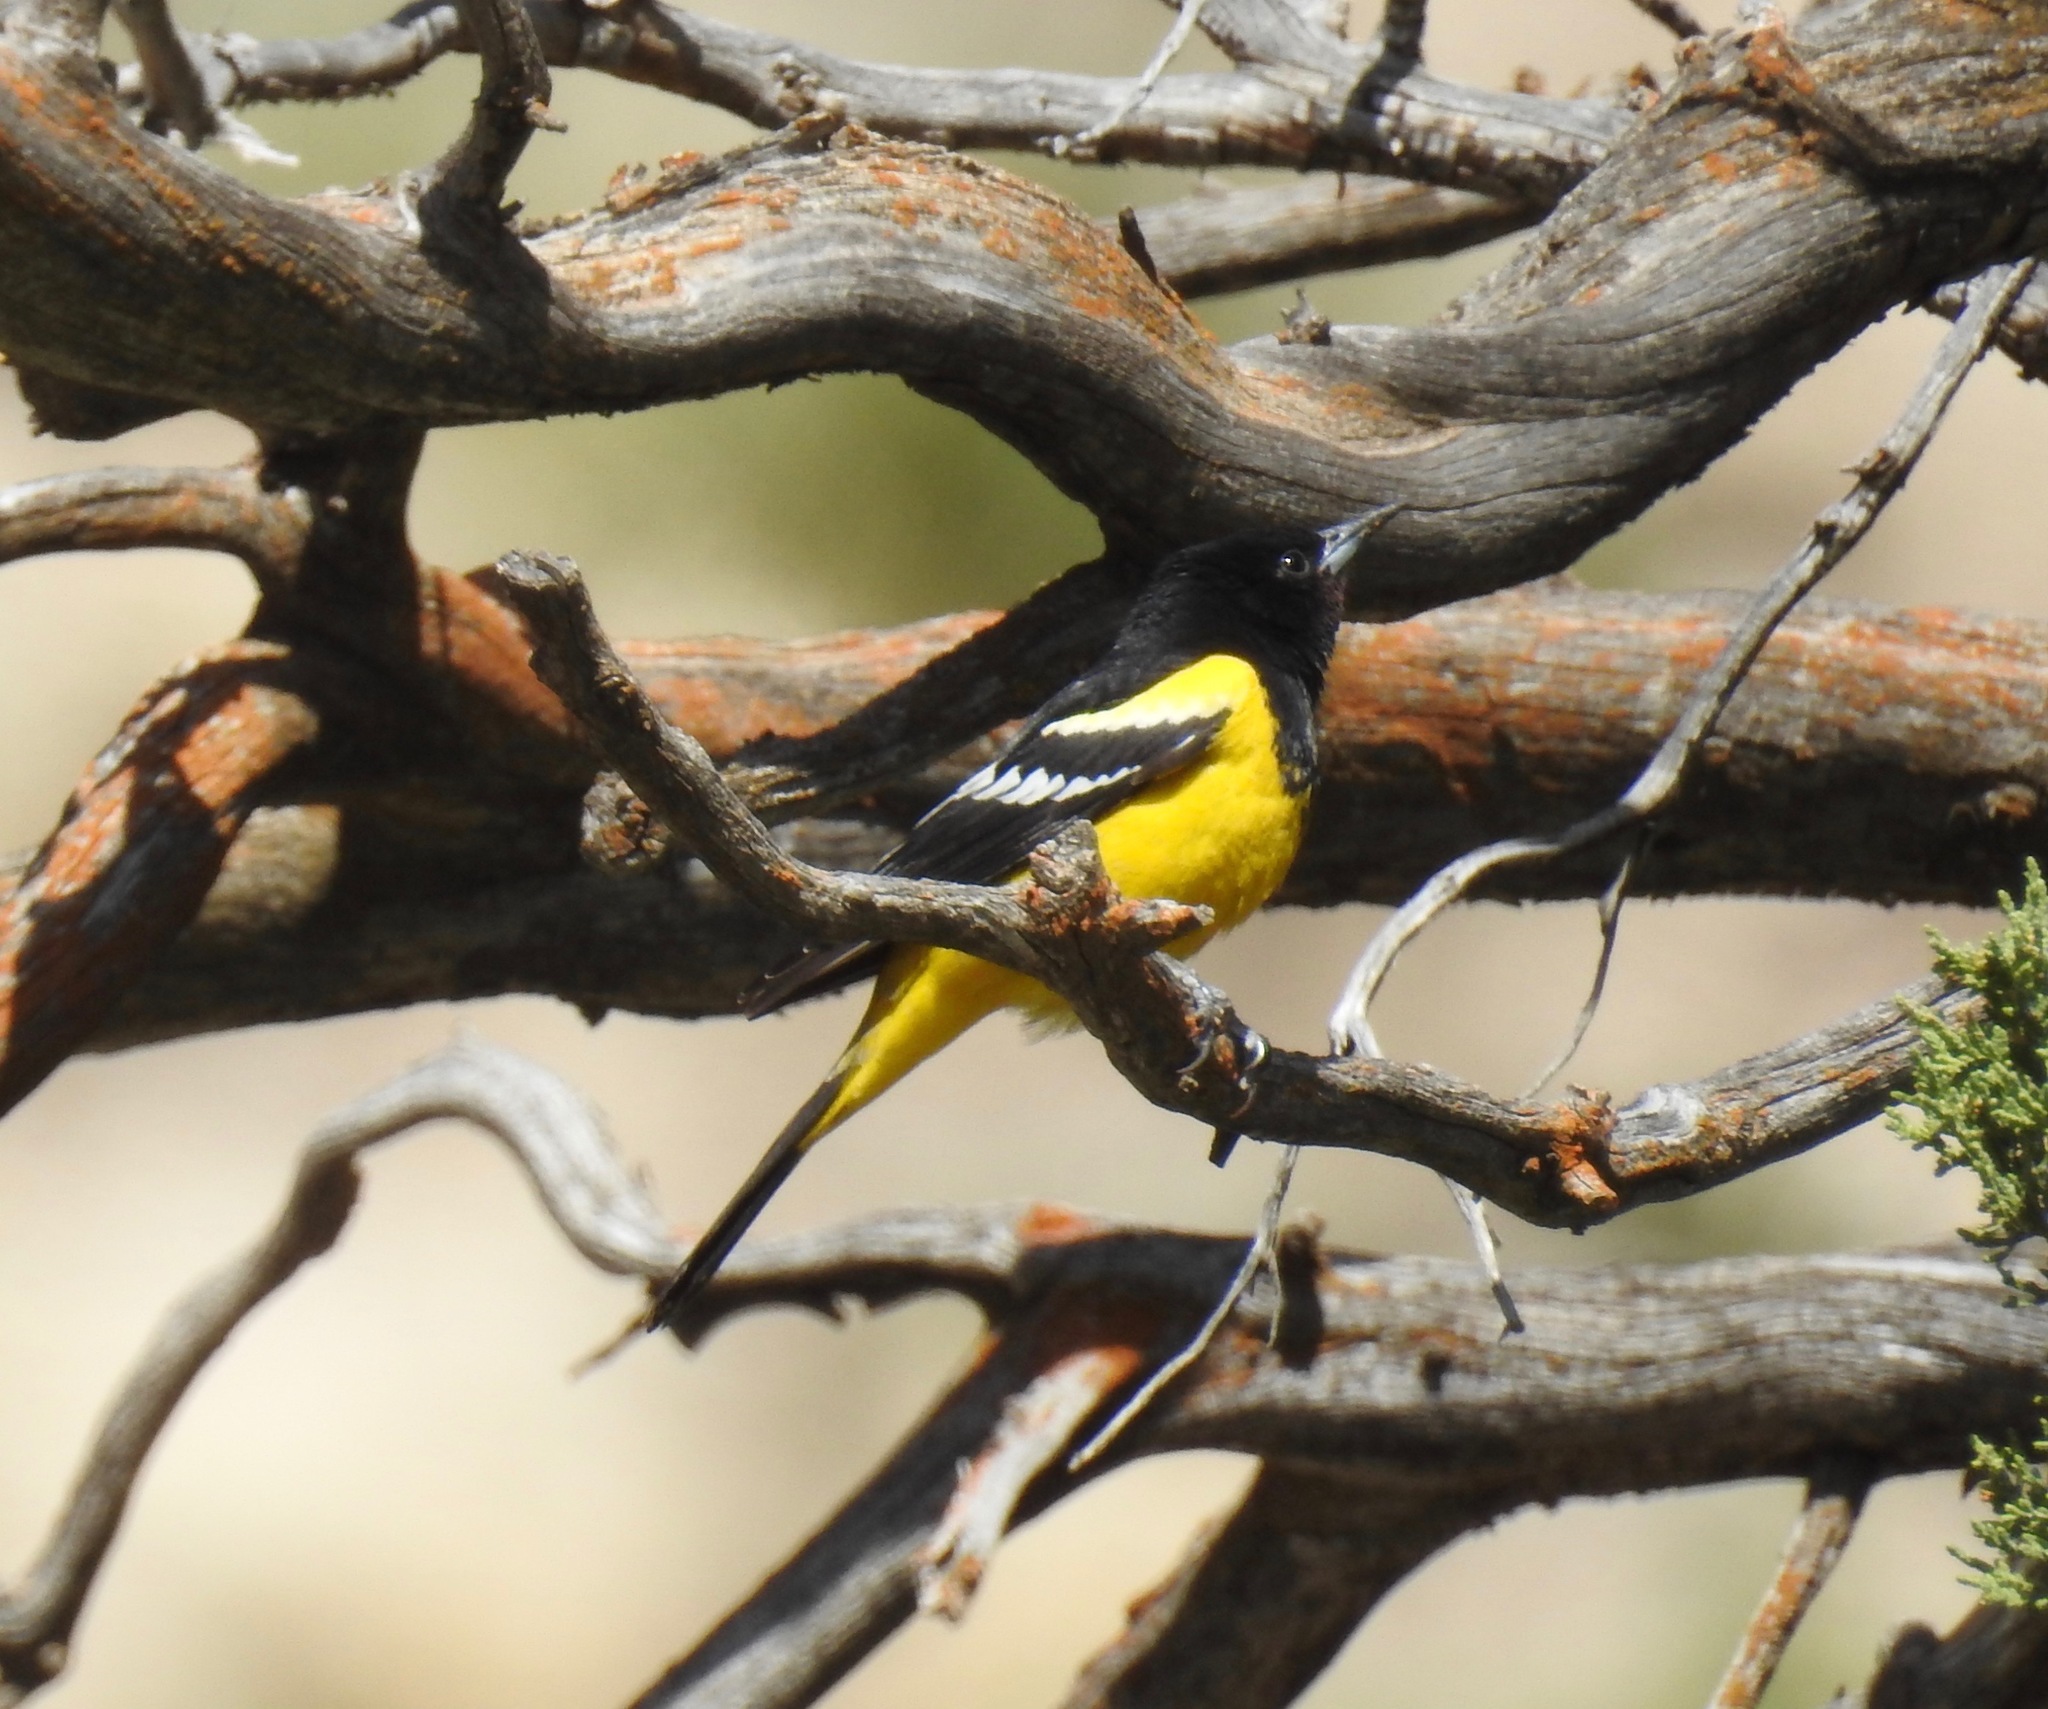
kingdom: Animalia
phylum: Chordata
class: Aves
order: Passeriformes
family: Icteridae
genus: Icterus
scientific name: Icterus parisorum
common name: Scott's oriole
